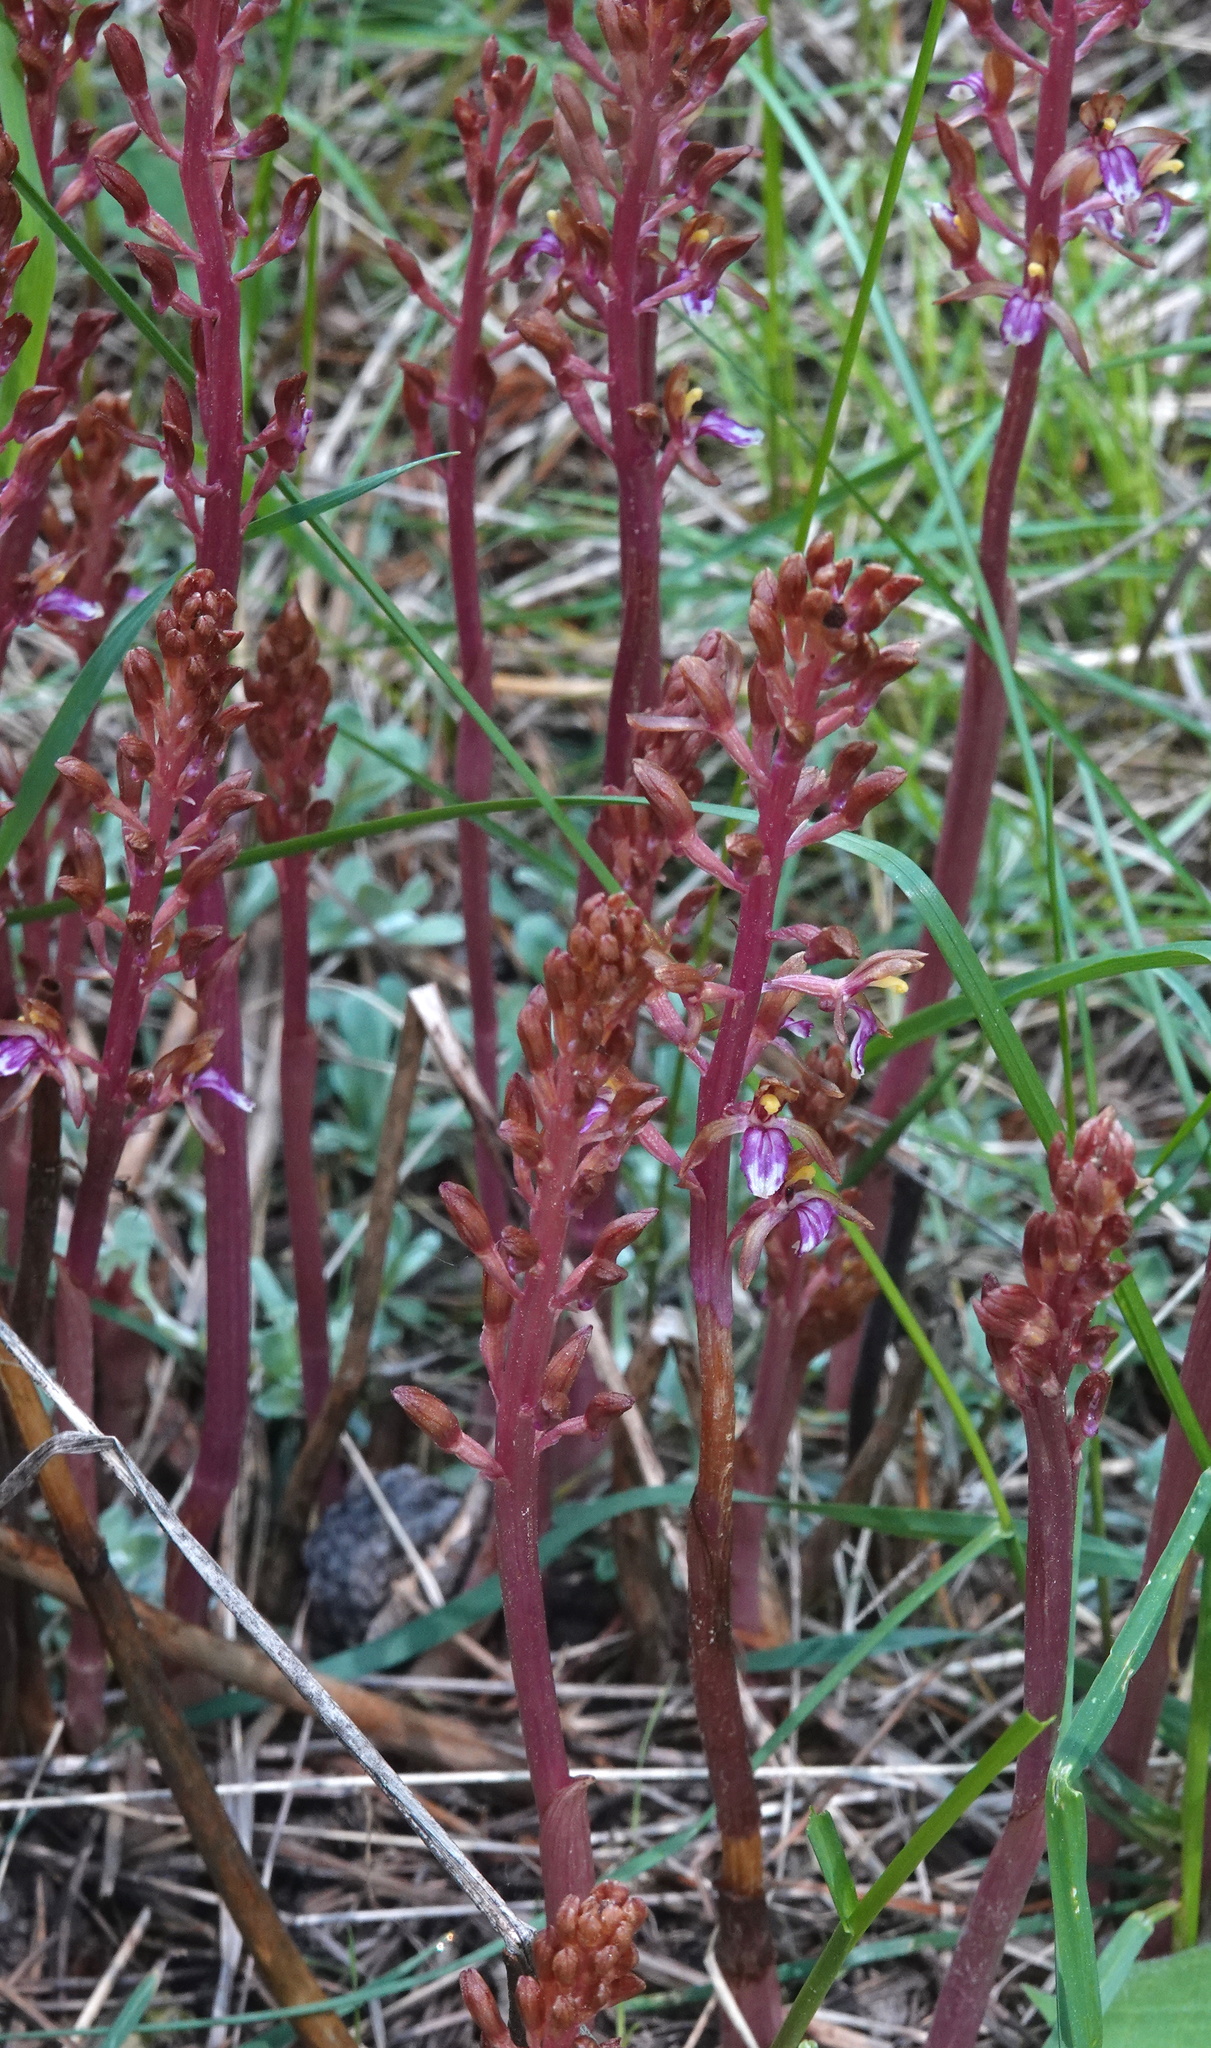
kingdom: Plantae
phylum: Tracheophyta
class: Liliopsida
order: Asparagales
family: Orchidaceae
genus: Corallorhiza
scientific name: Corallorhiza mertensiana
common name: Pacific coralroot
